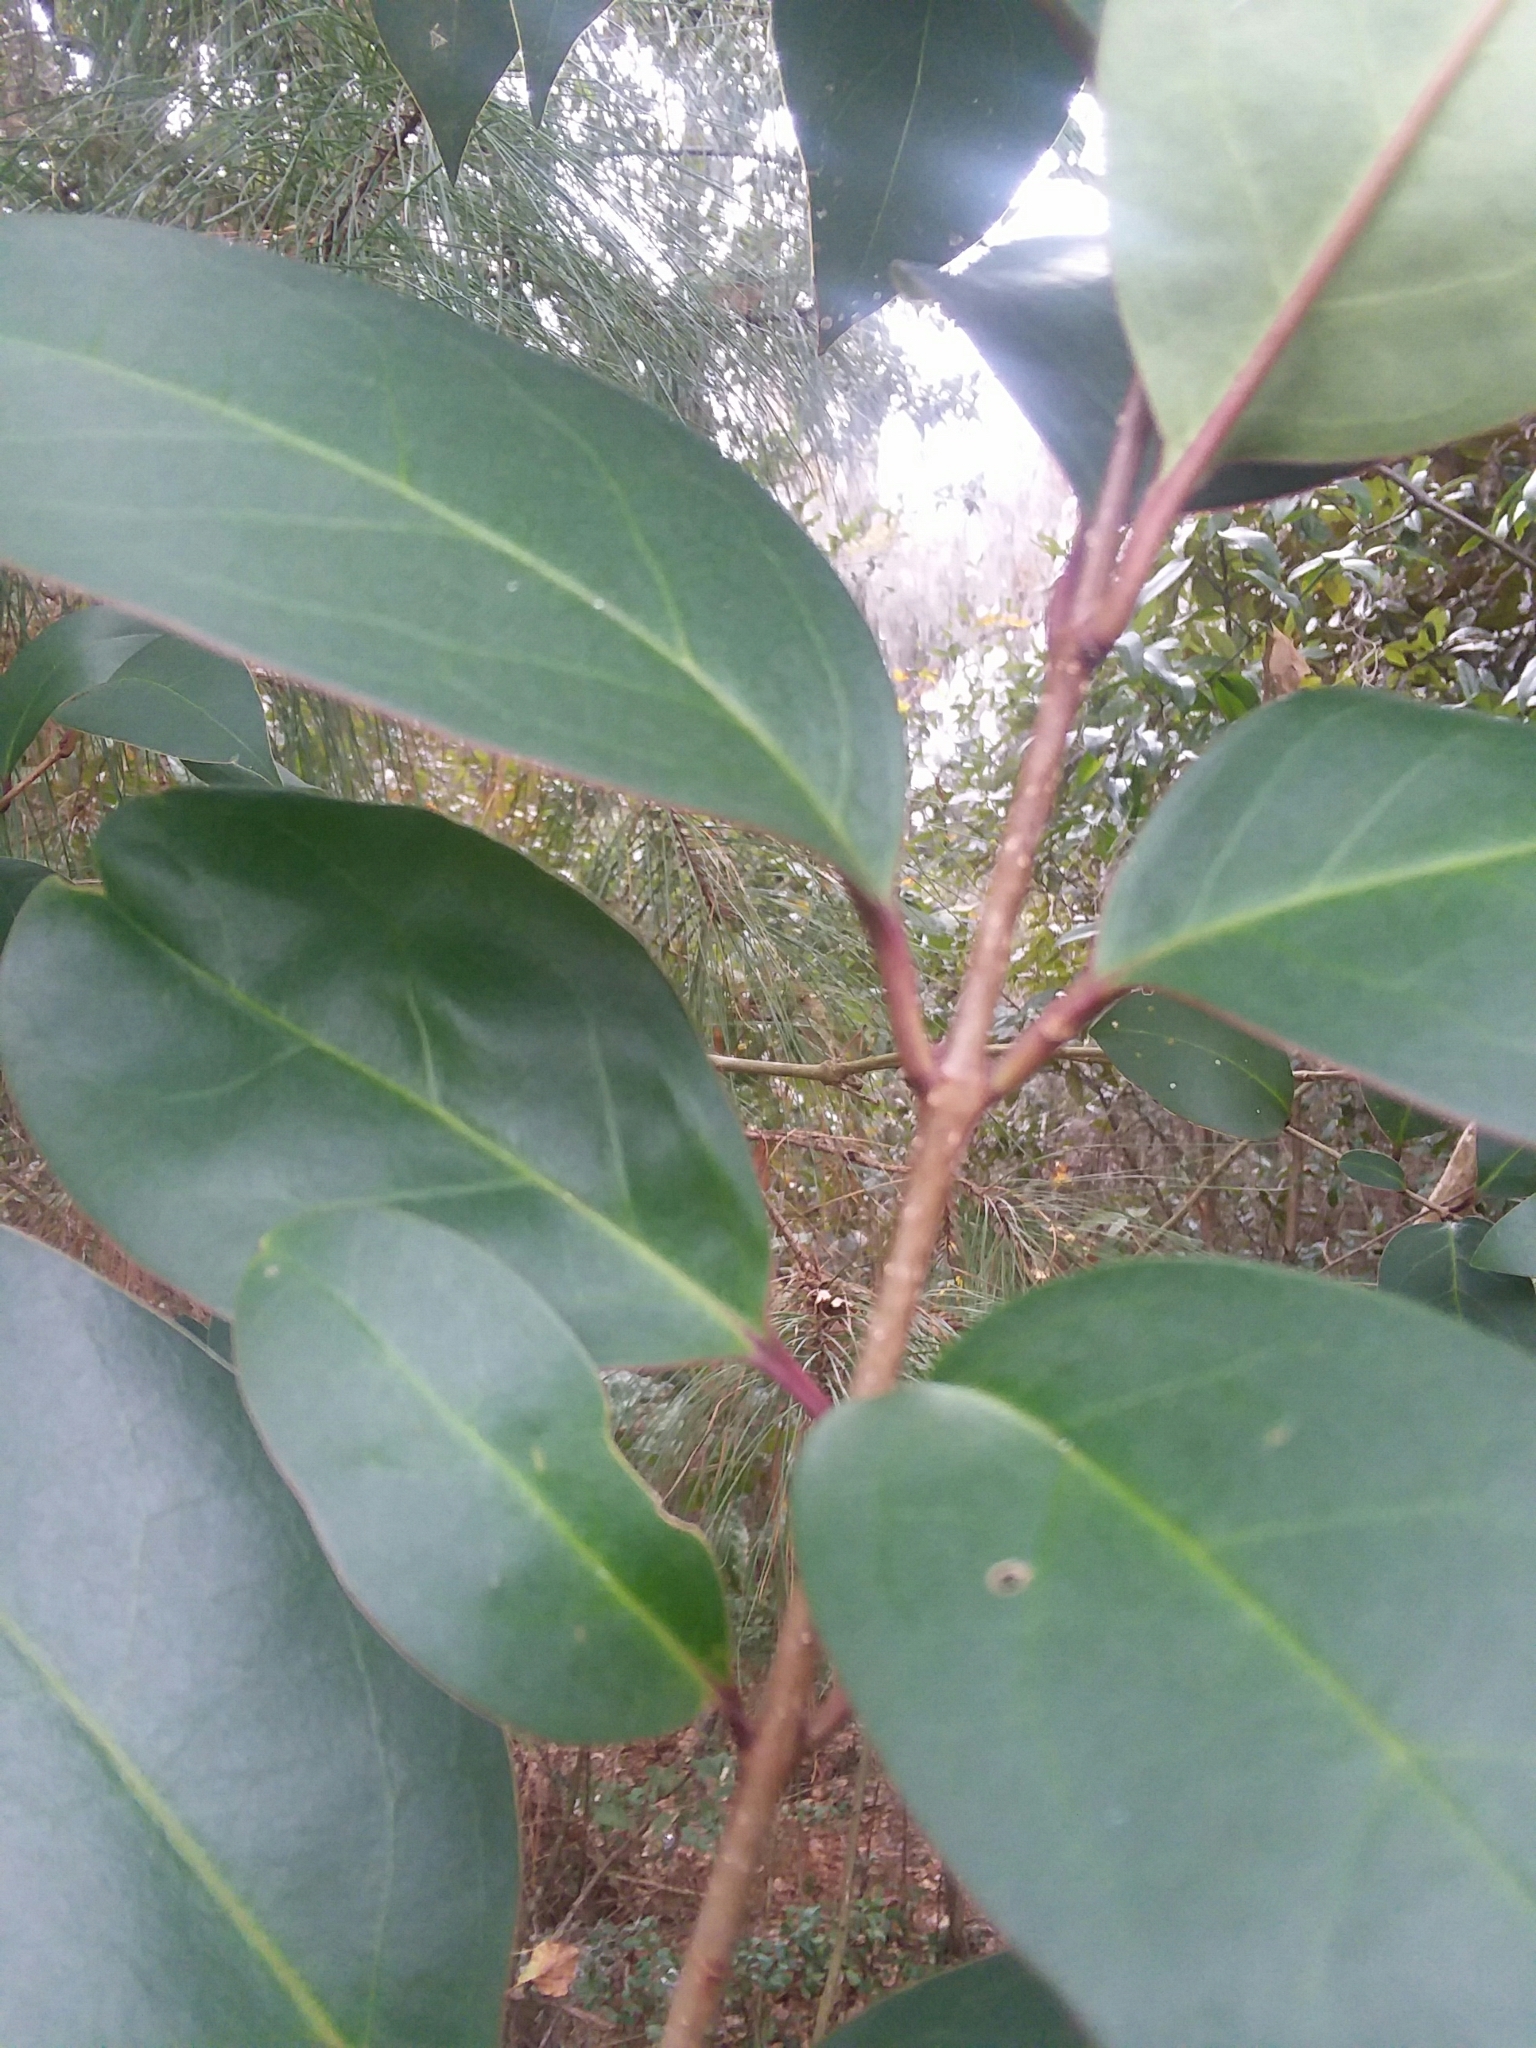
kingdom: Plantae
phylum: Tracheophyta
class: Magnoliopsida
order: Lamiales
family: Oleaceae
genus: Ligustrum
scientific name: Ligustrum lucidum
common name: Glossy privet
